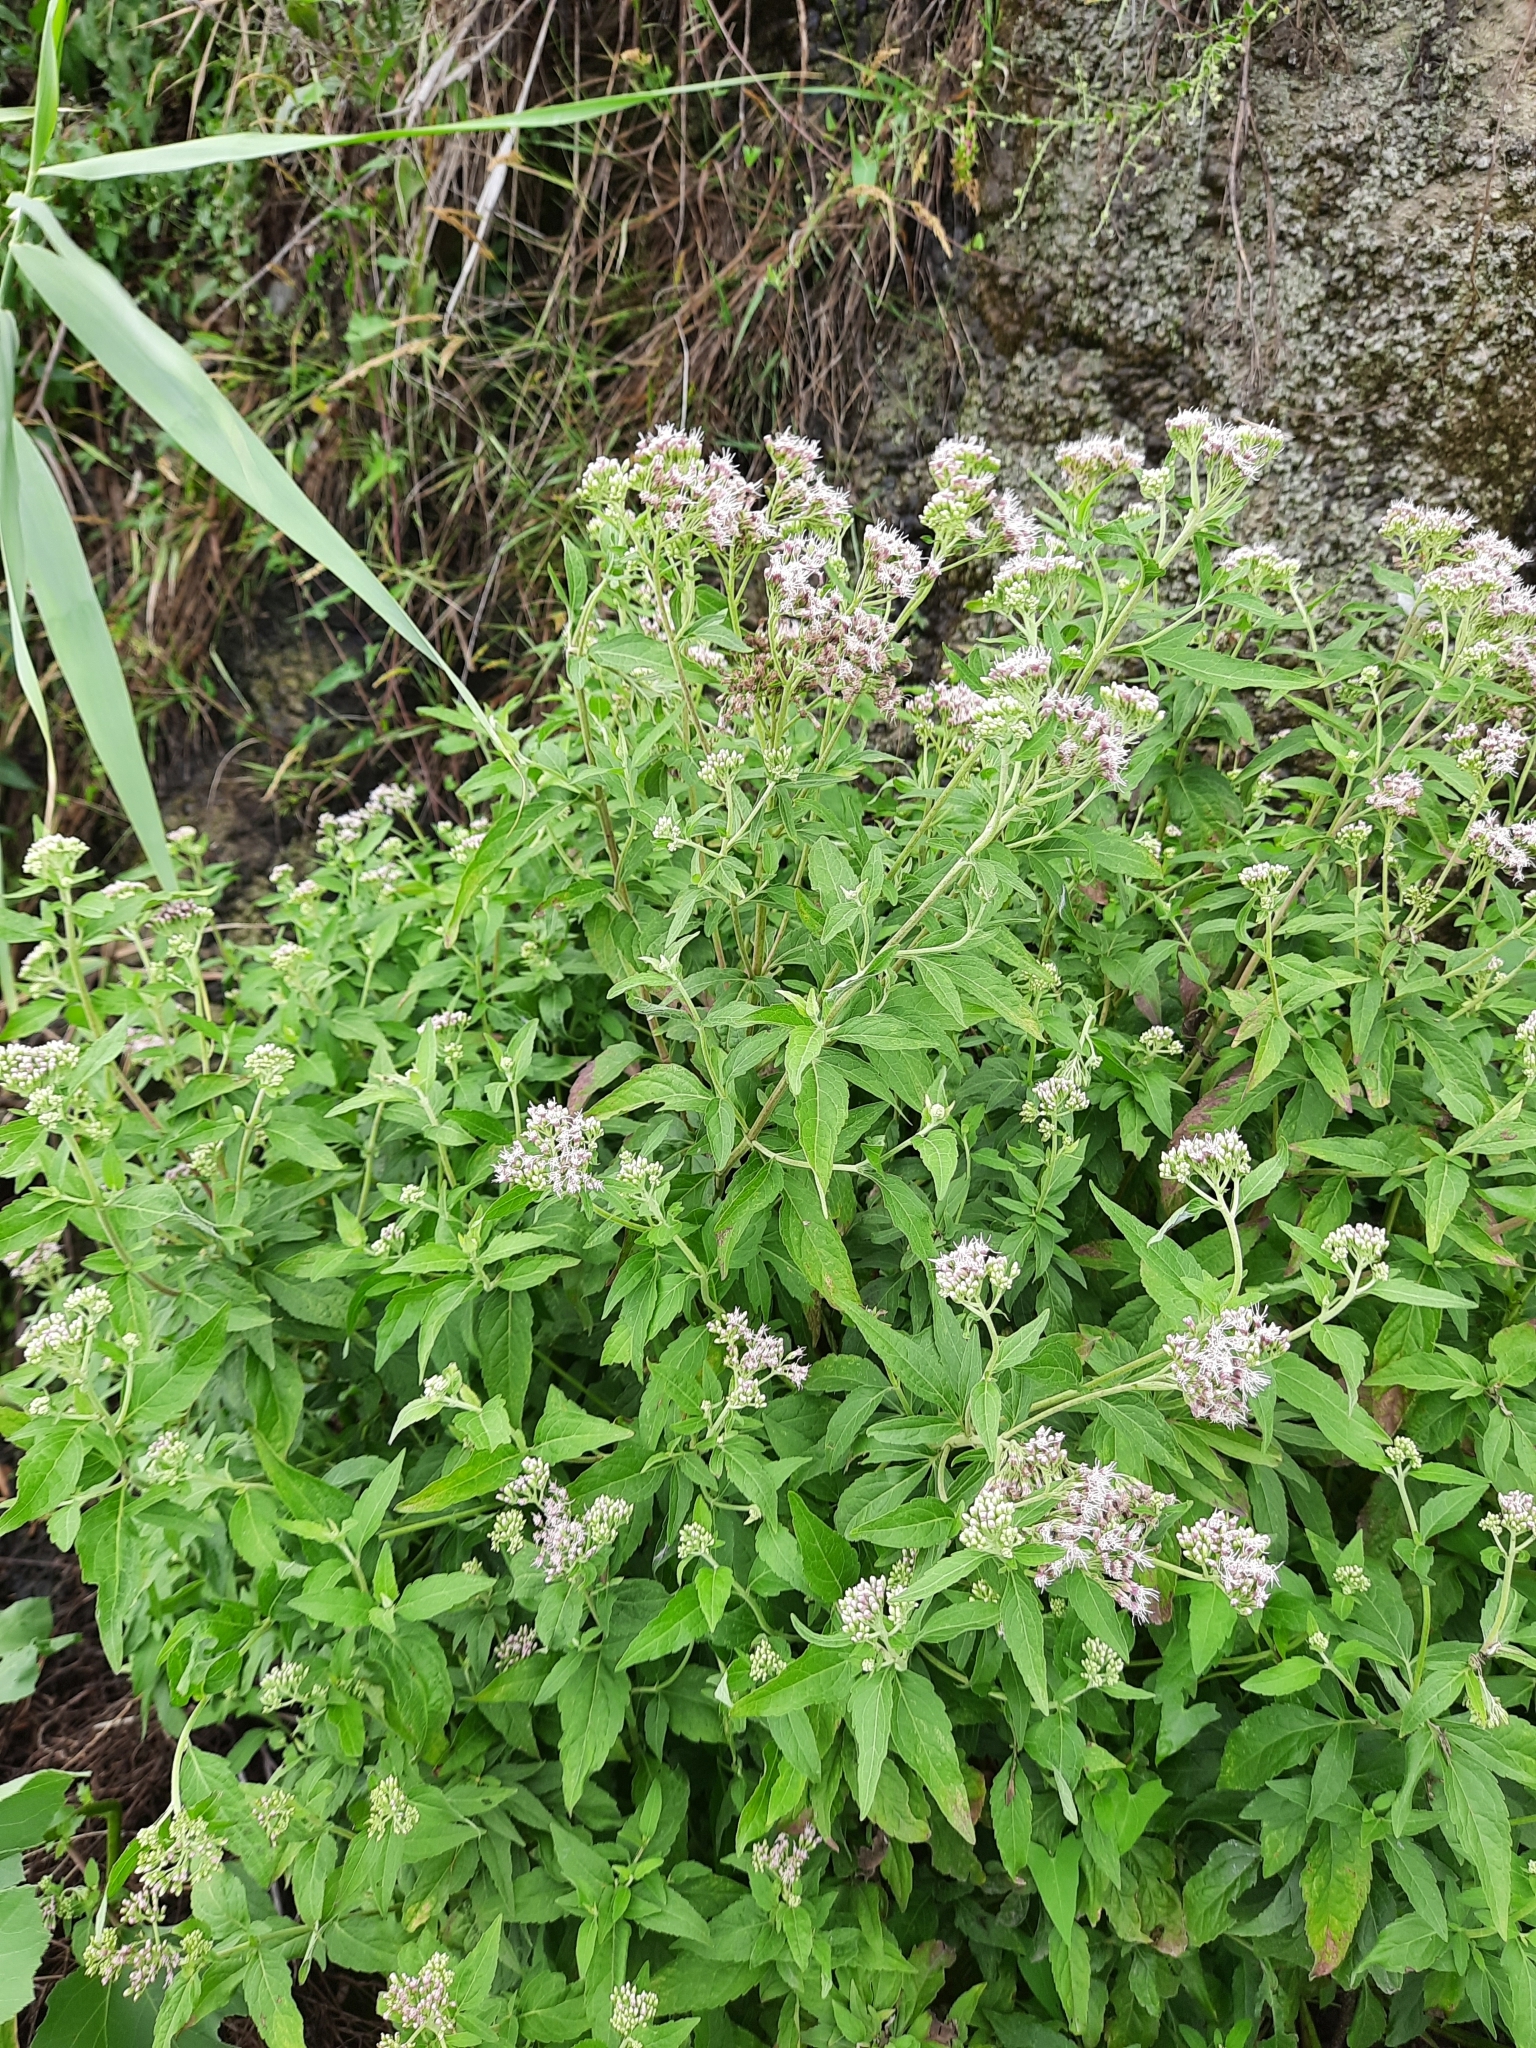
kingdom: Plantae
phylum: Tracheophyta
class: Magnoliopsida
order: Asterales
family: Asteraceae
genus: Eupatorium
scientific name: Eupatorium cannabinum
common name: Hemp-agrimony
